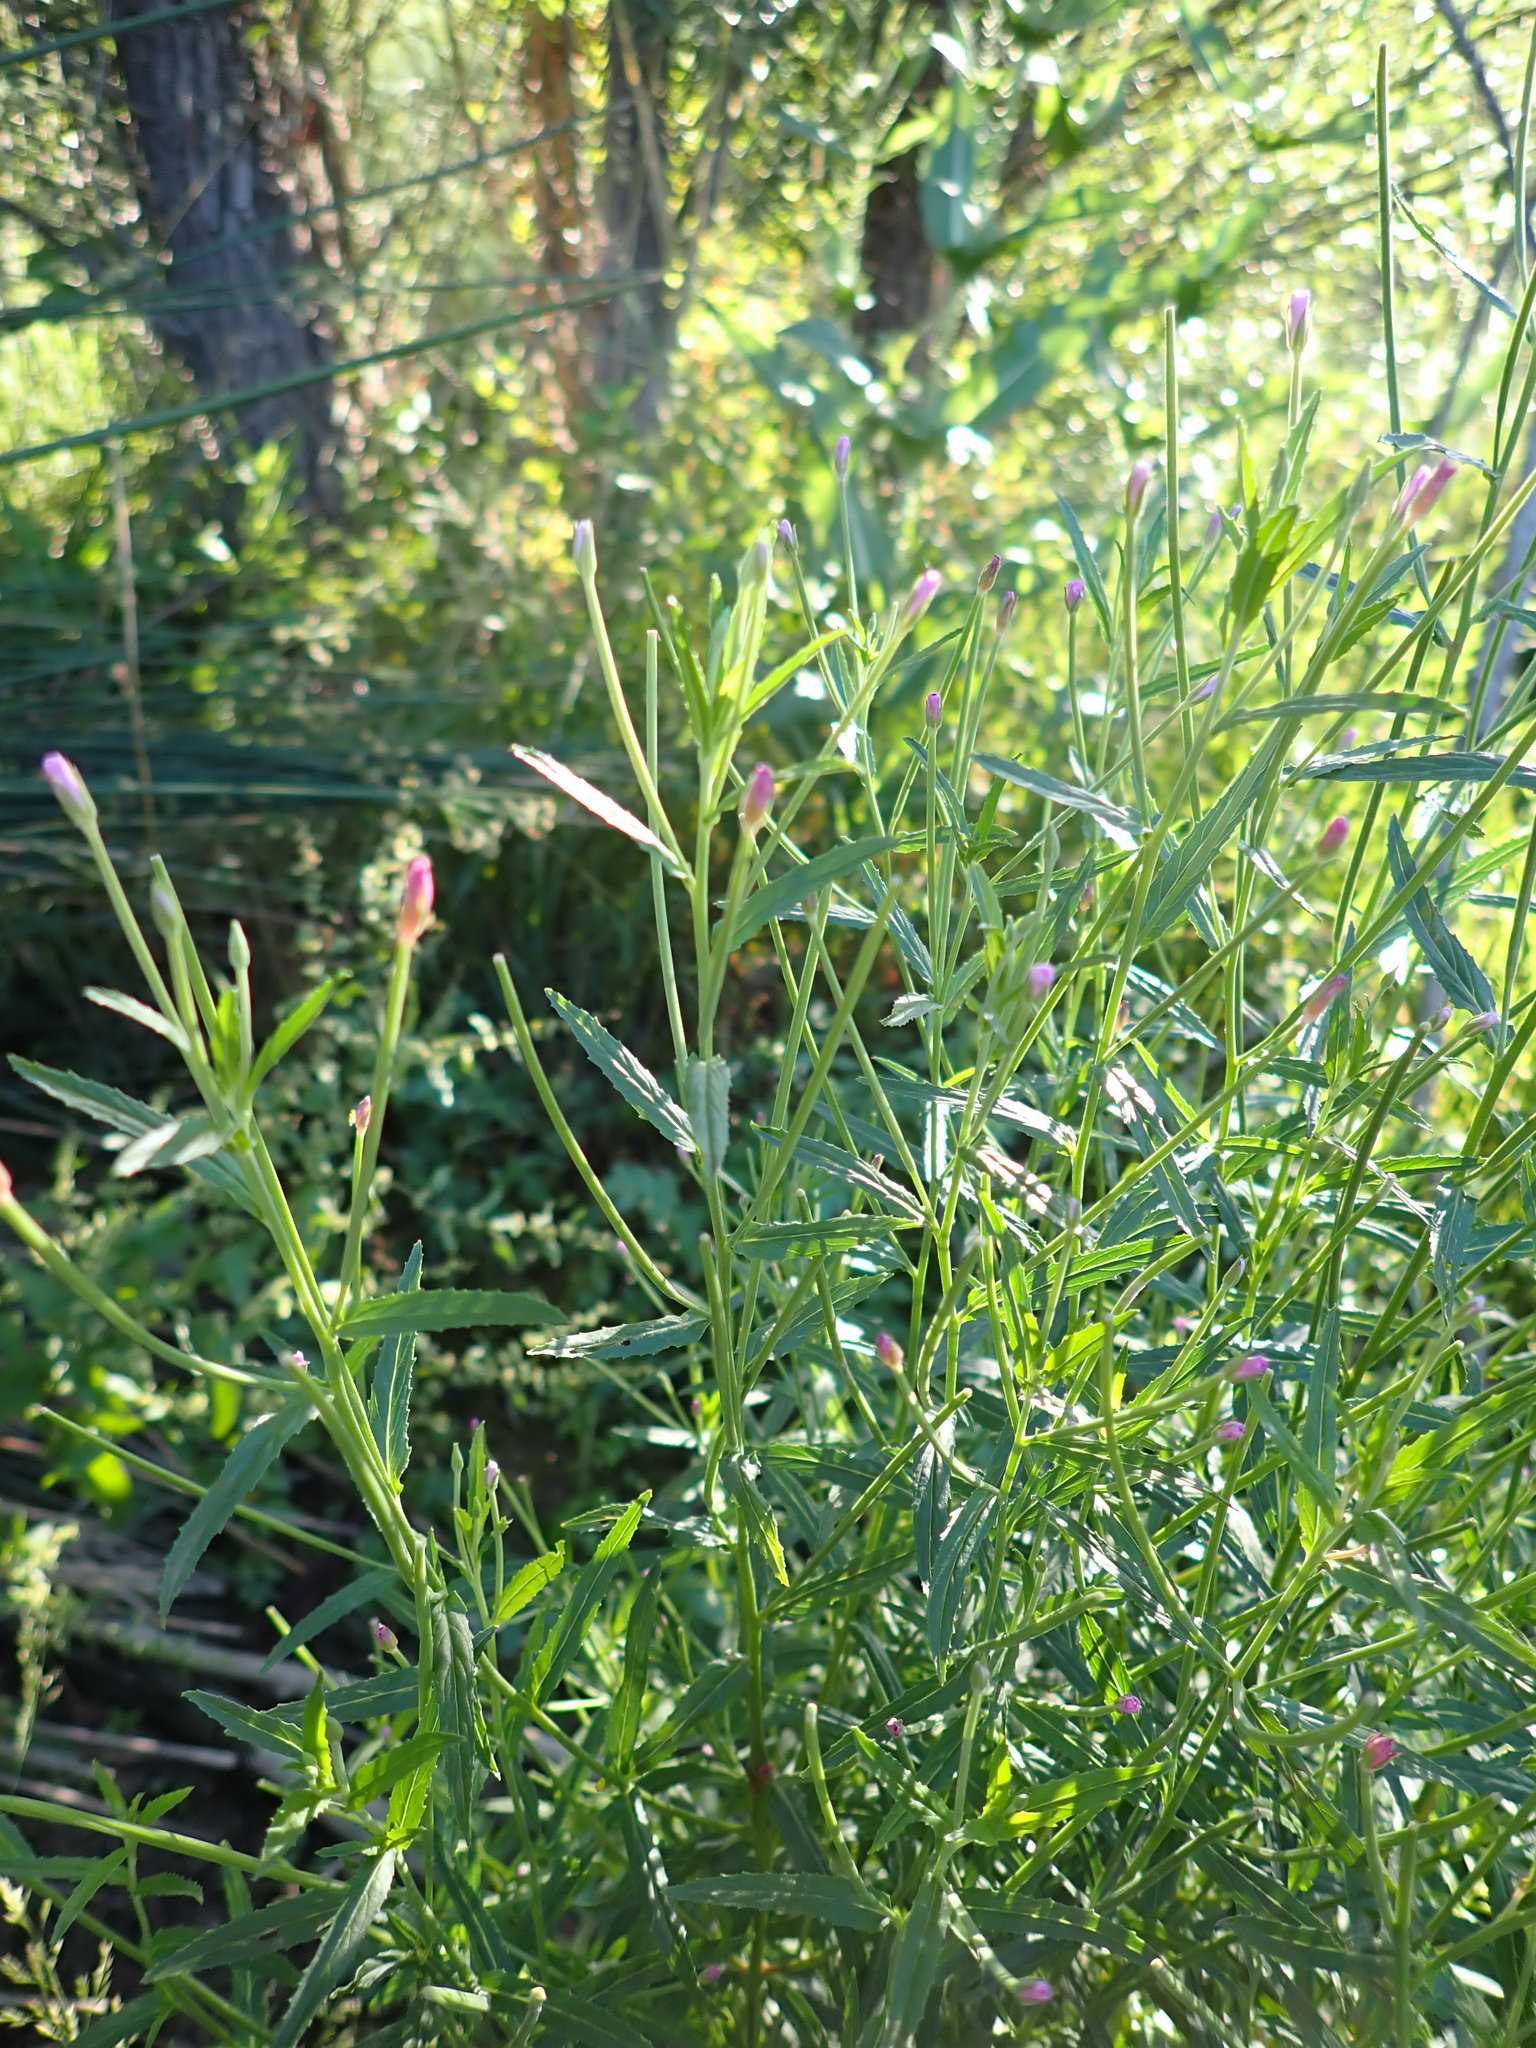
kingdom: Plantae
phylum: Tracheophyta
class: Magnoliopsida
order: Myrtales
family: Onagraceae
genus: Epilobium
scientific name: Epilobium tetragonum
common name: Square-stemmed willowherb
